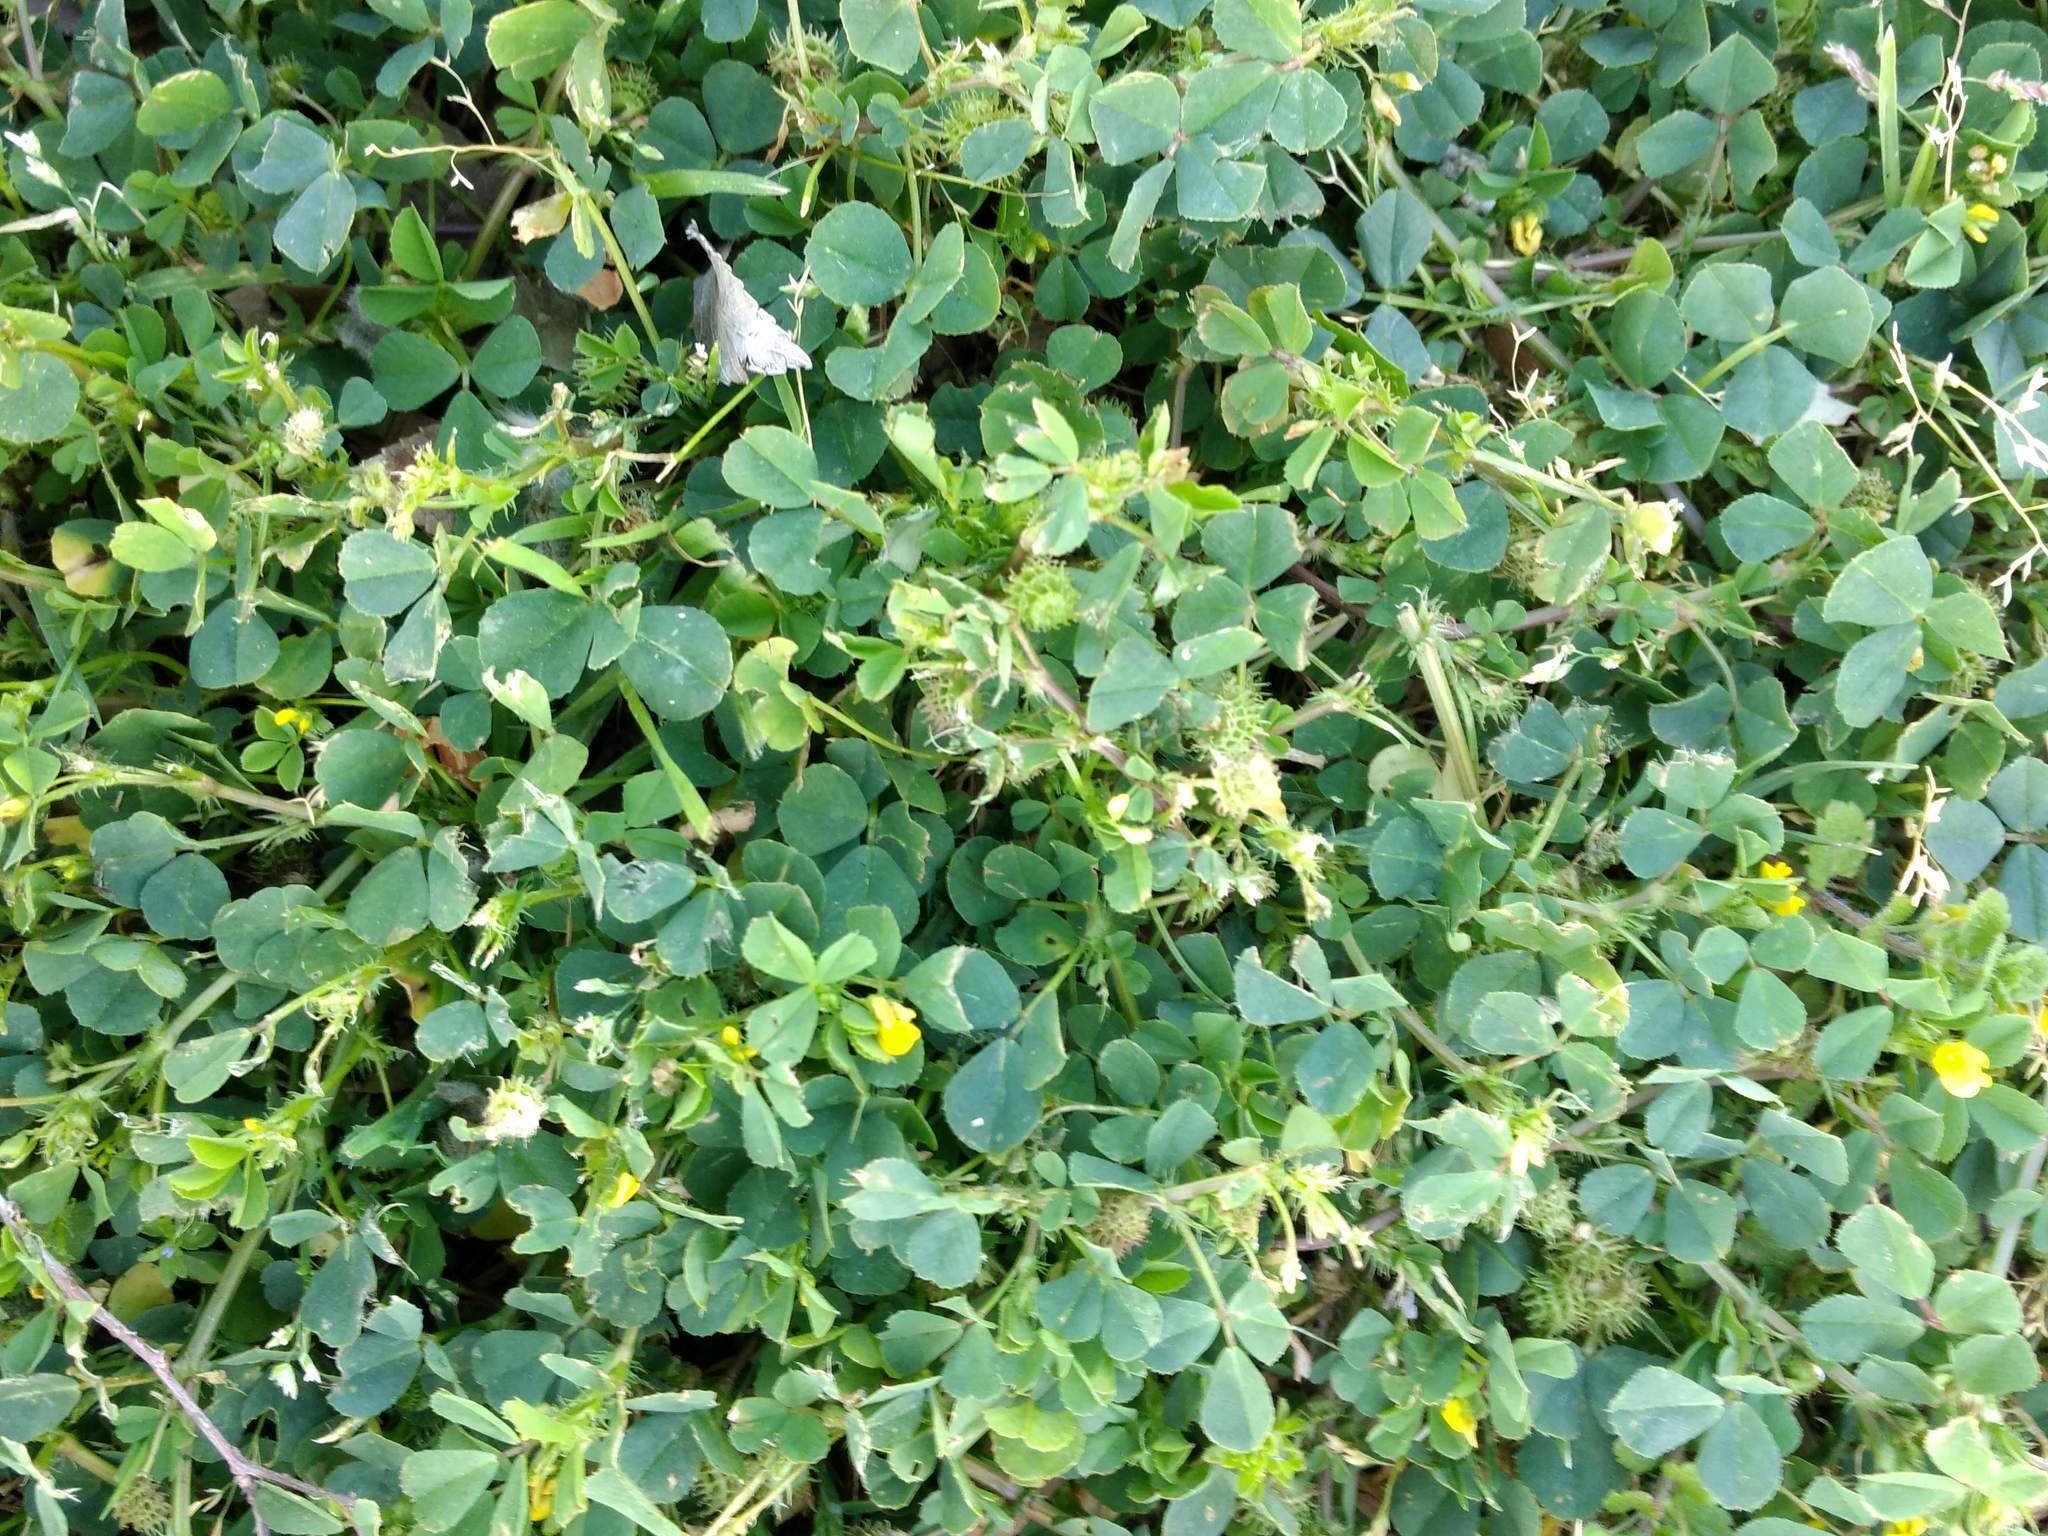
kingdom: Plantae
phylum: Tracheophyta
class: Magnoliopsida
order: Fabales
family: Fabaceae
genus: Medicago
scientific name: Medicago polymorpha
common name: Burclover
